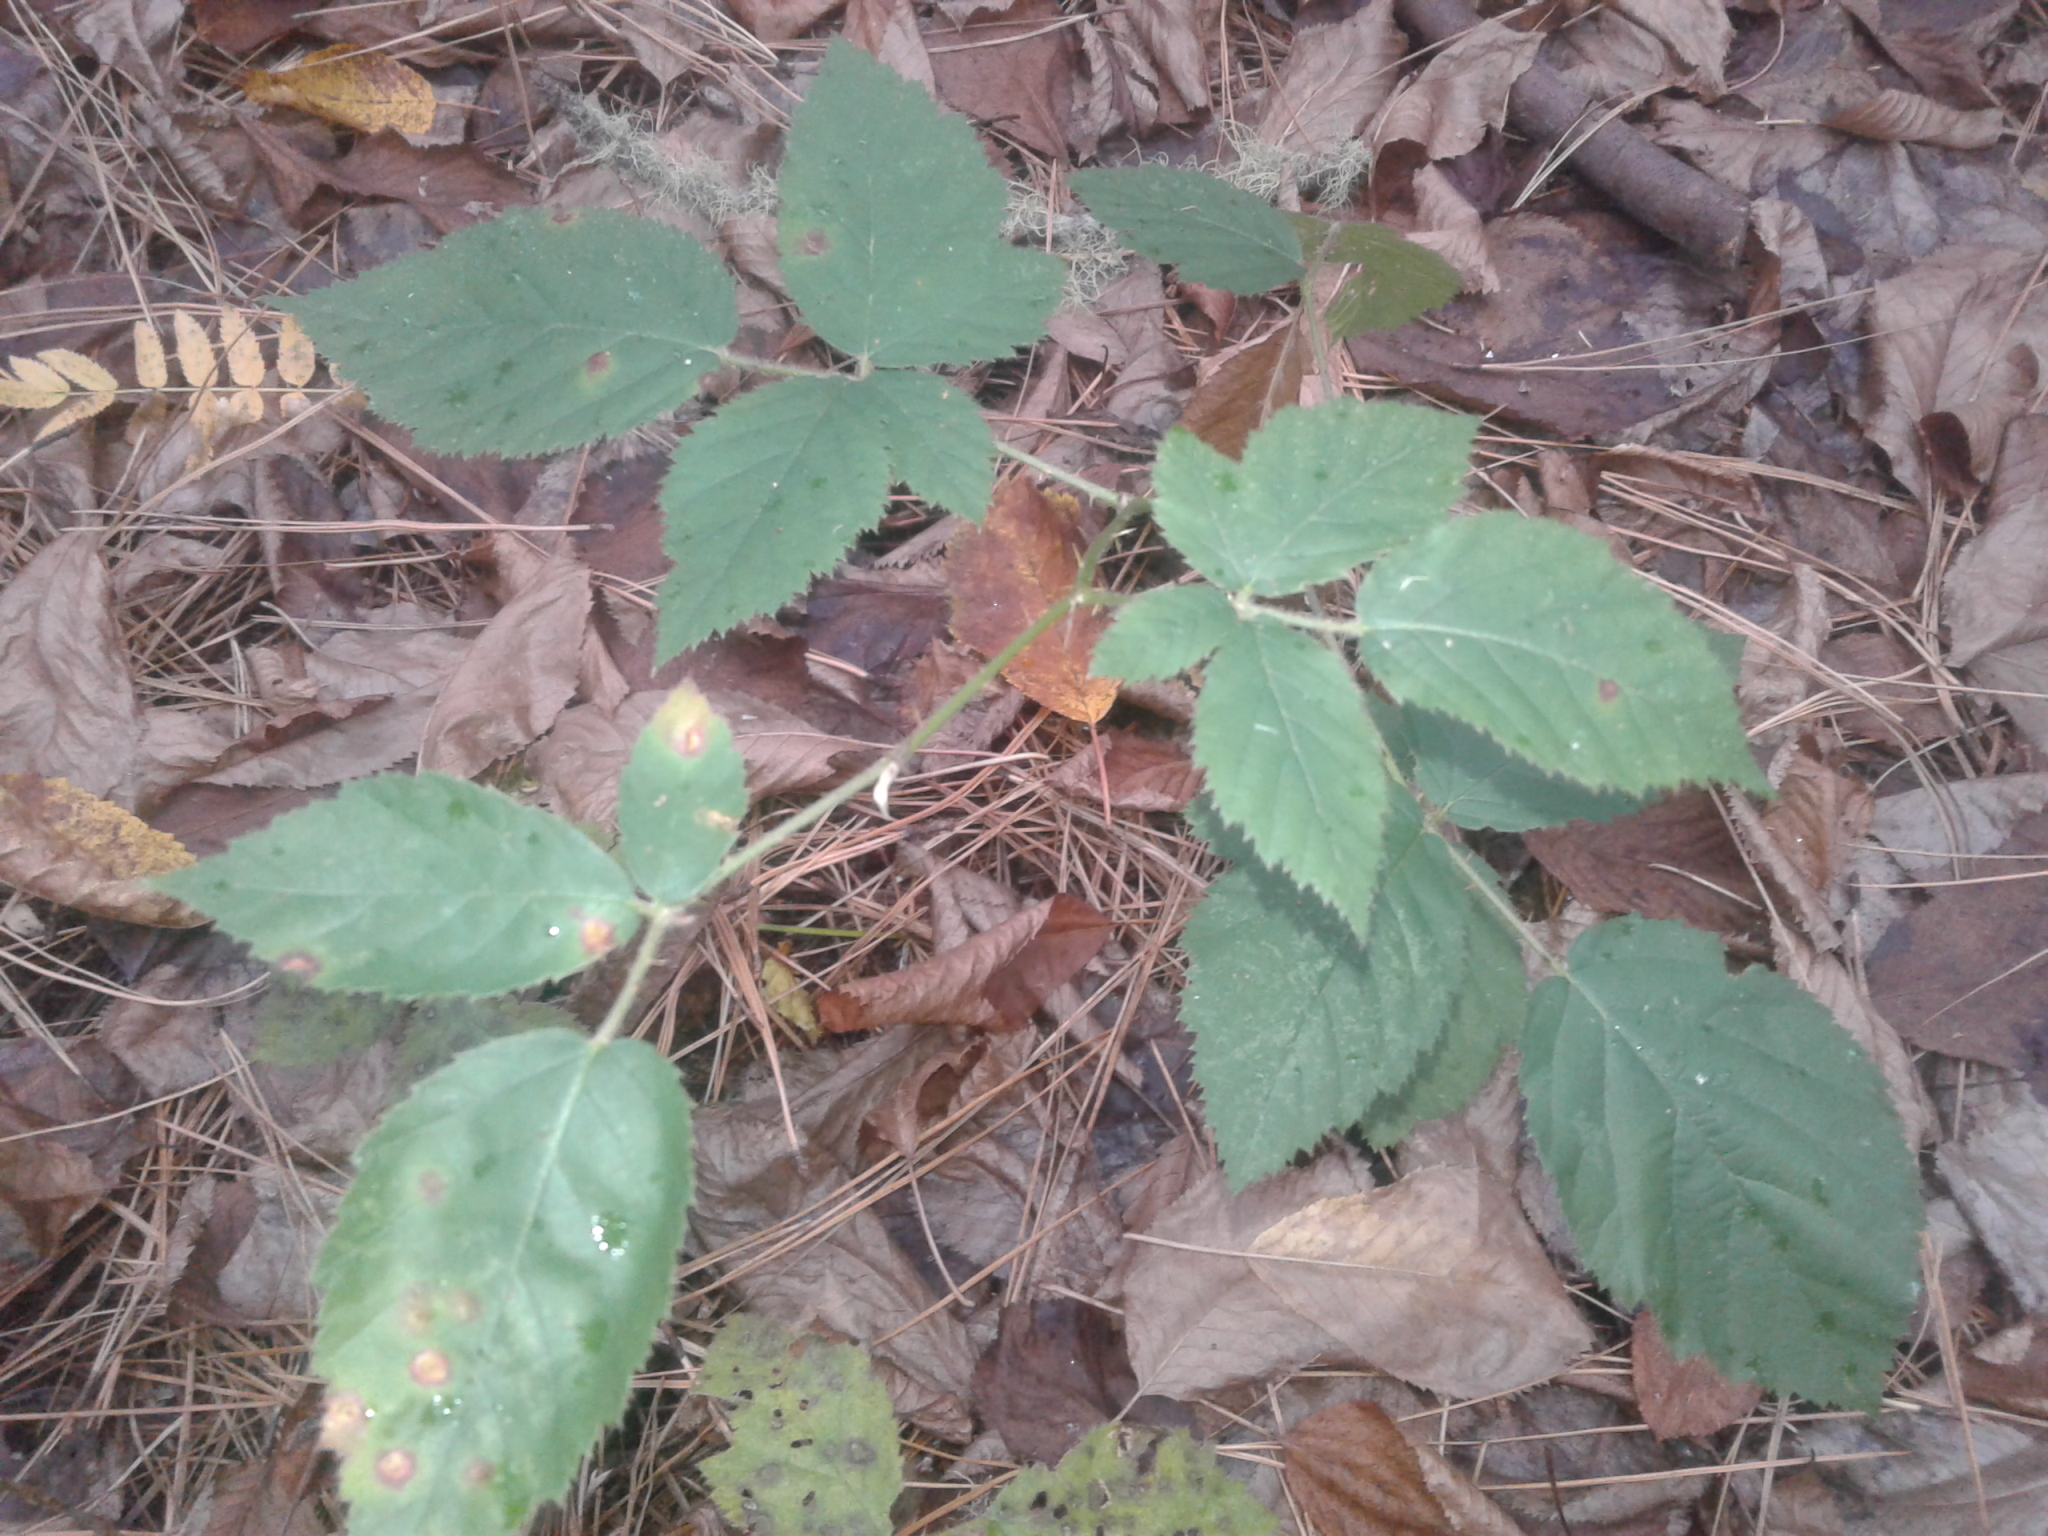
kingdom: Plantae
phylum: Tracheophyta
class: Magnoliopsida
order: Rosales
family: Rosaceae
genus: Rubus
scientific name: Rubus
